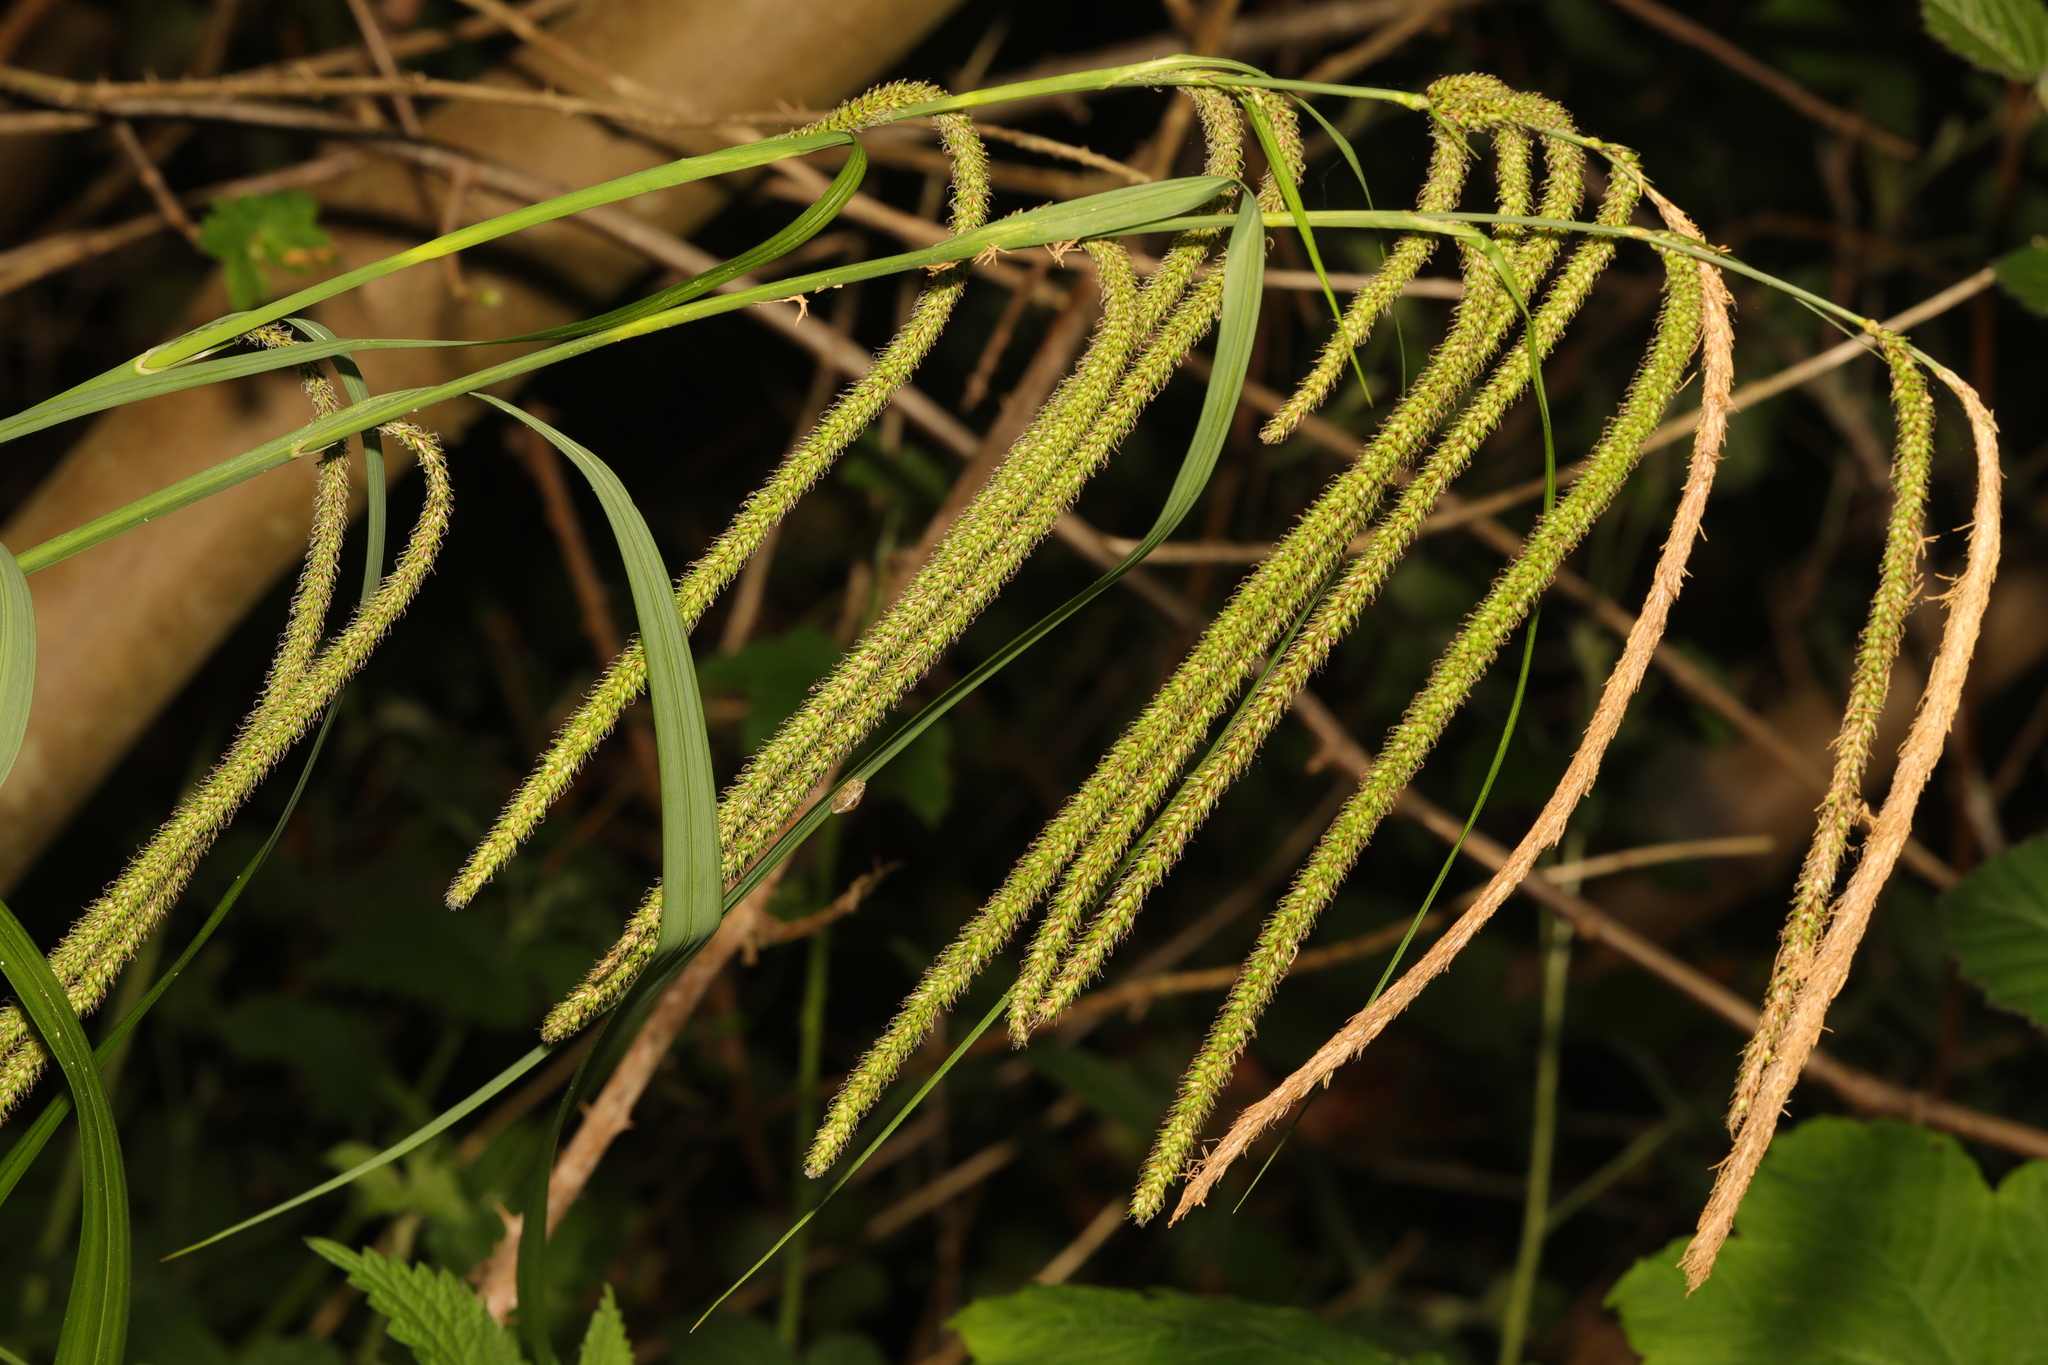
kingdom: Plantae
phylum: Tracheophyta
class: Liliopsida
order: Poales
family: Cyperaceae
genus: Carex
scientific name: Carex pendula
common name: Pendulous sedge
